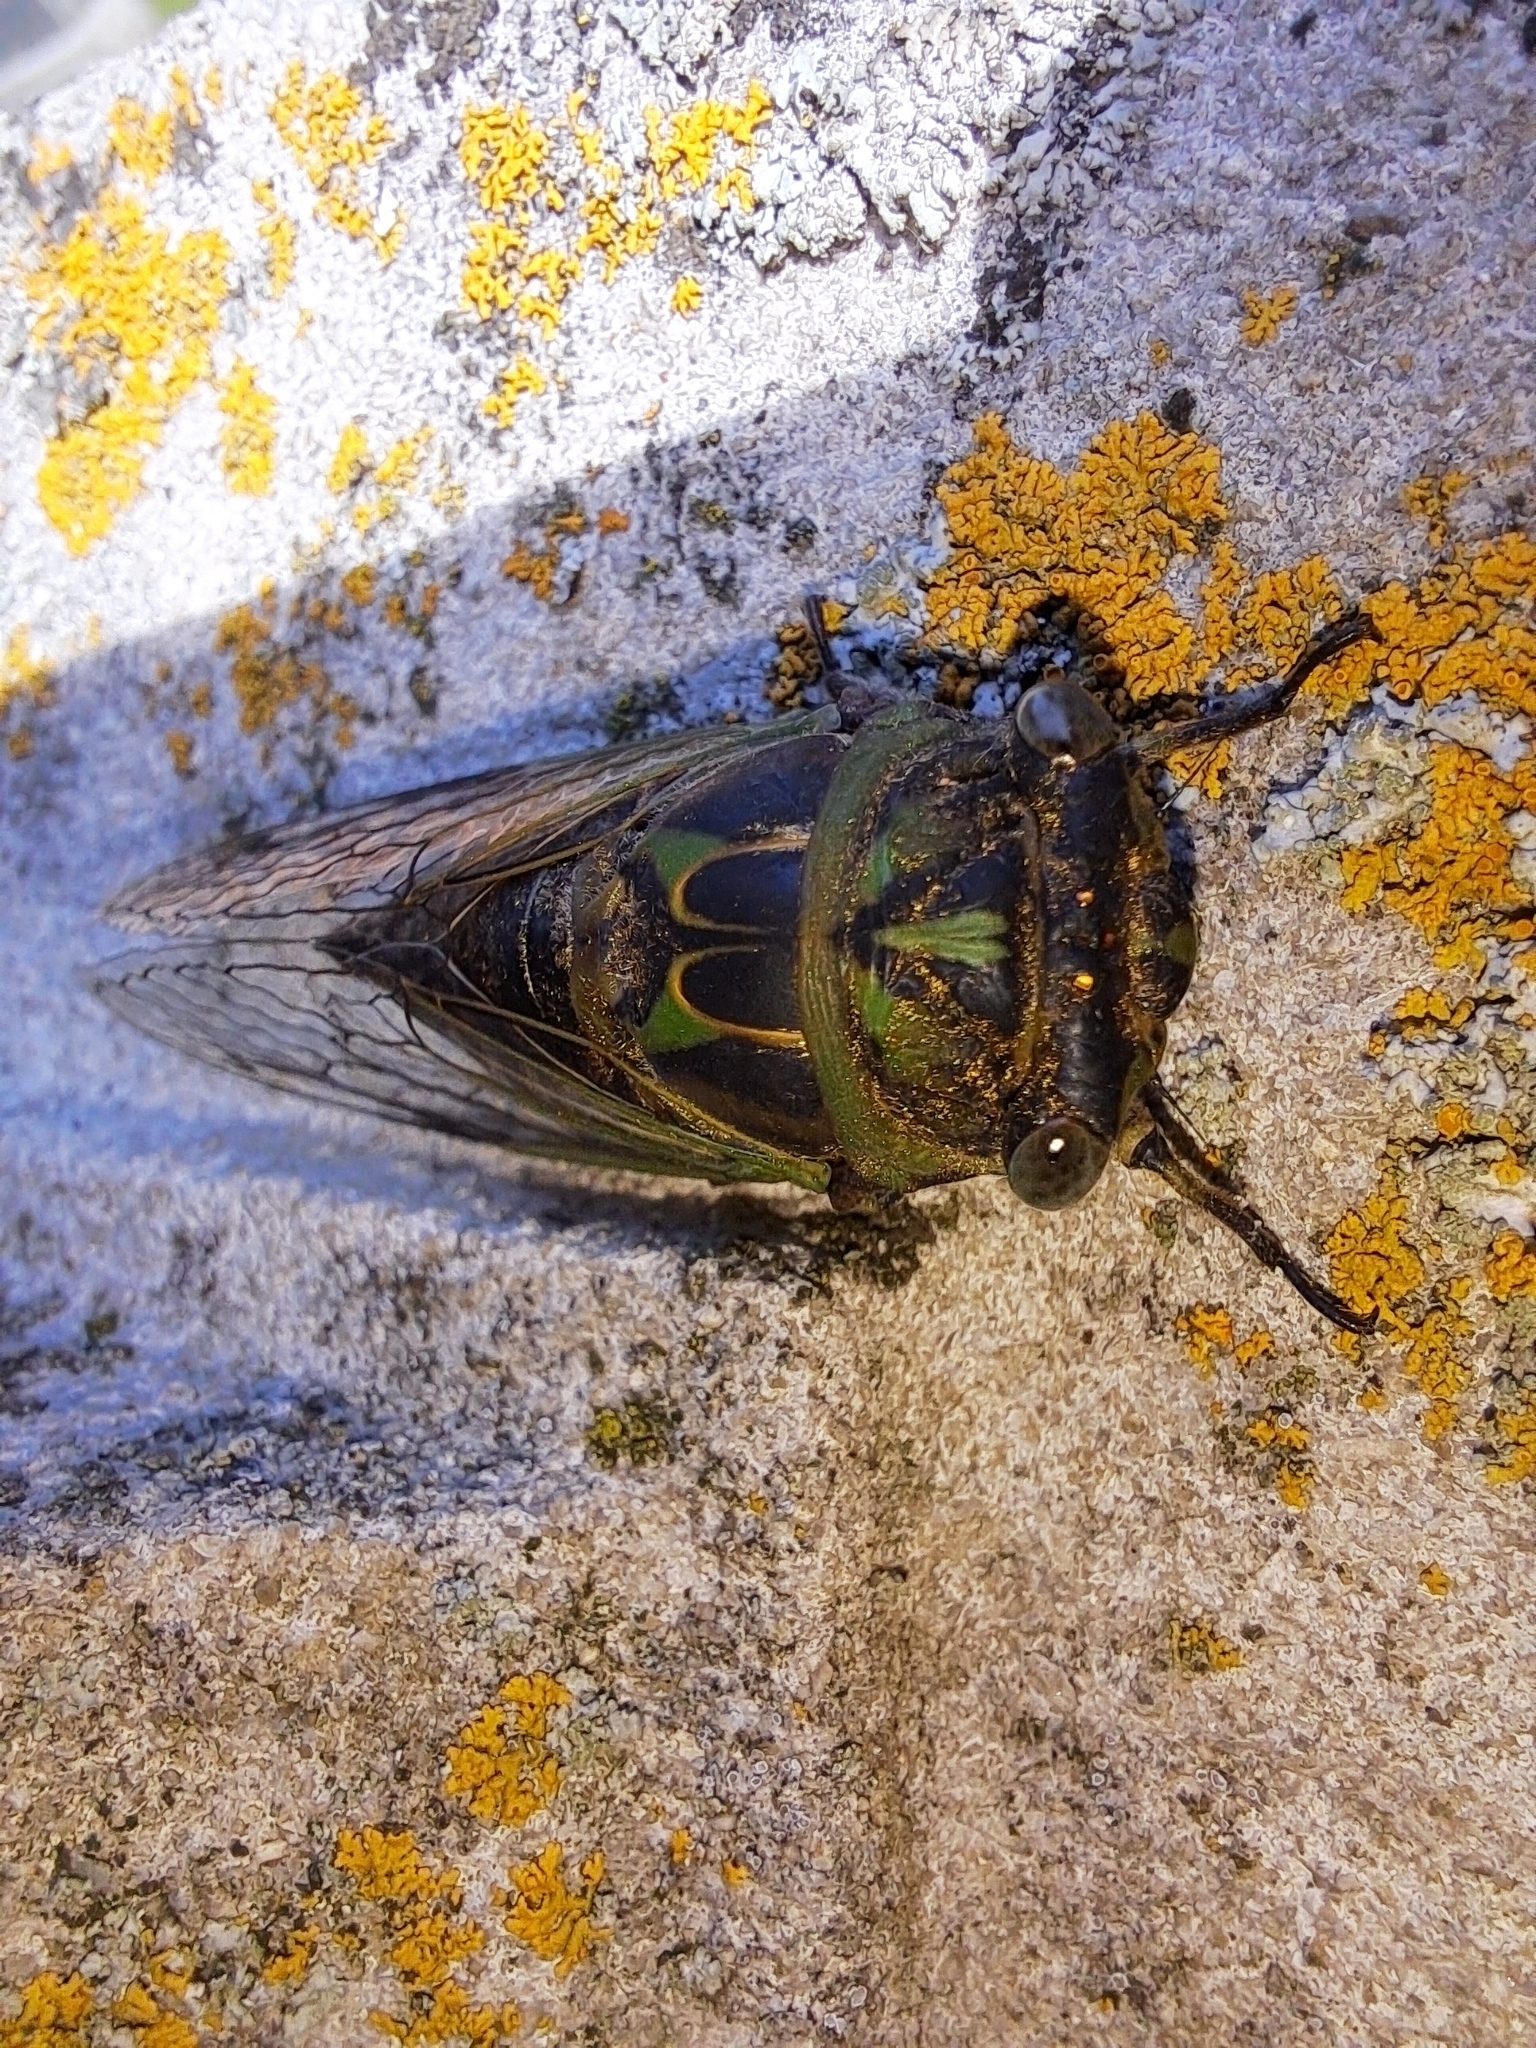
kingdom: Animalia
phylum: Arthropoda
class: Insecta
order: Hemiptera
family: Cicadidae
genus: Neotibicen
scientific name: Neotibicen canicularis
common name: God-day cicada
